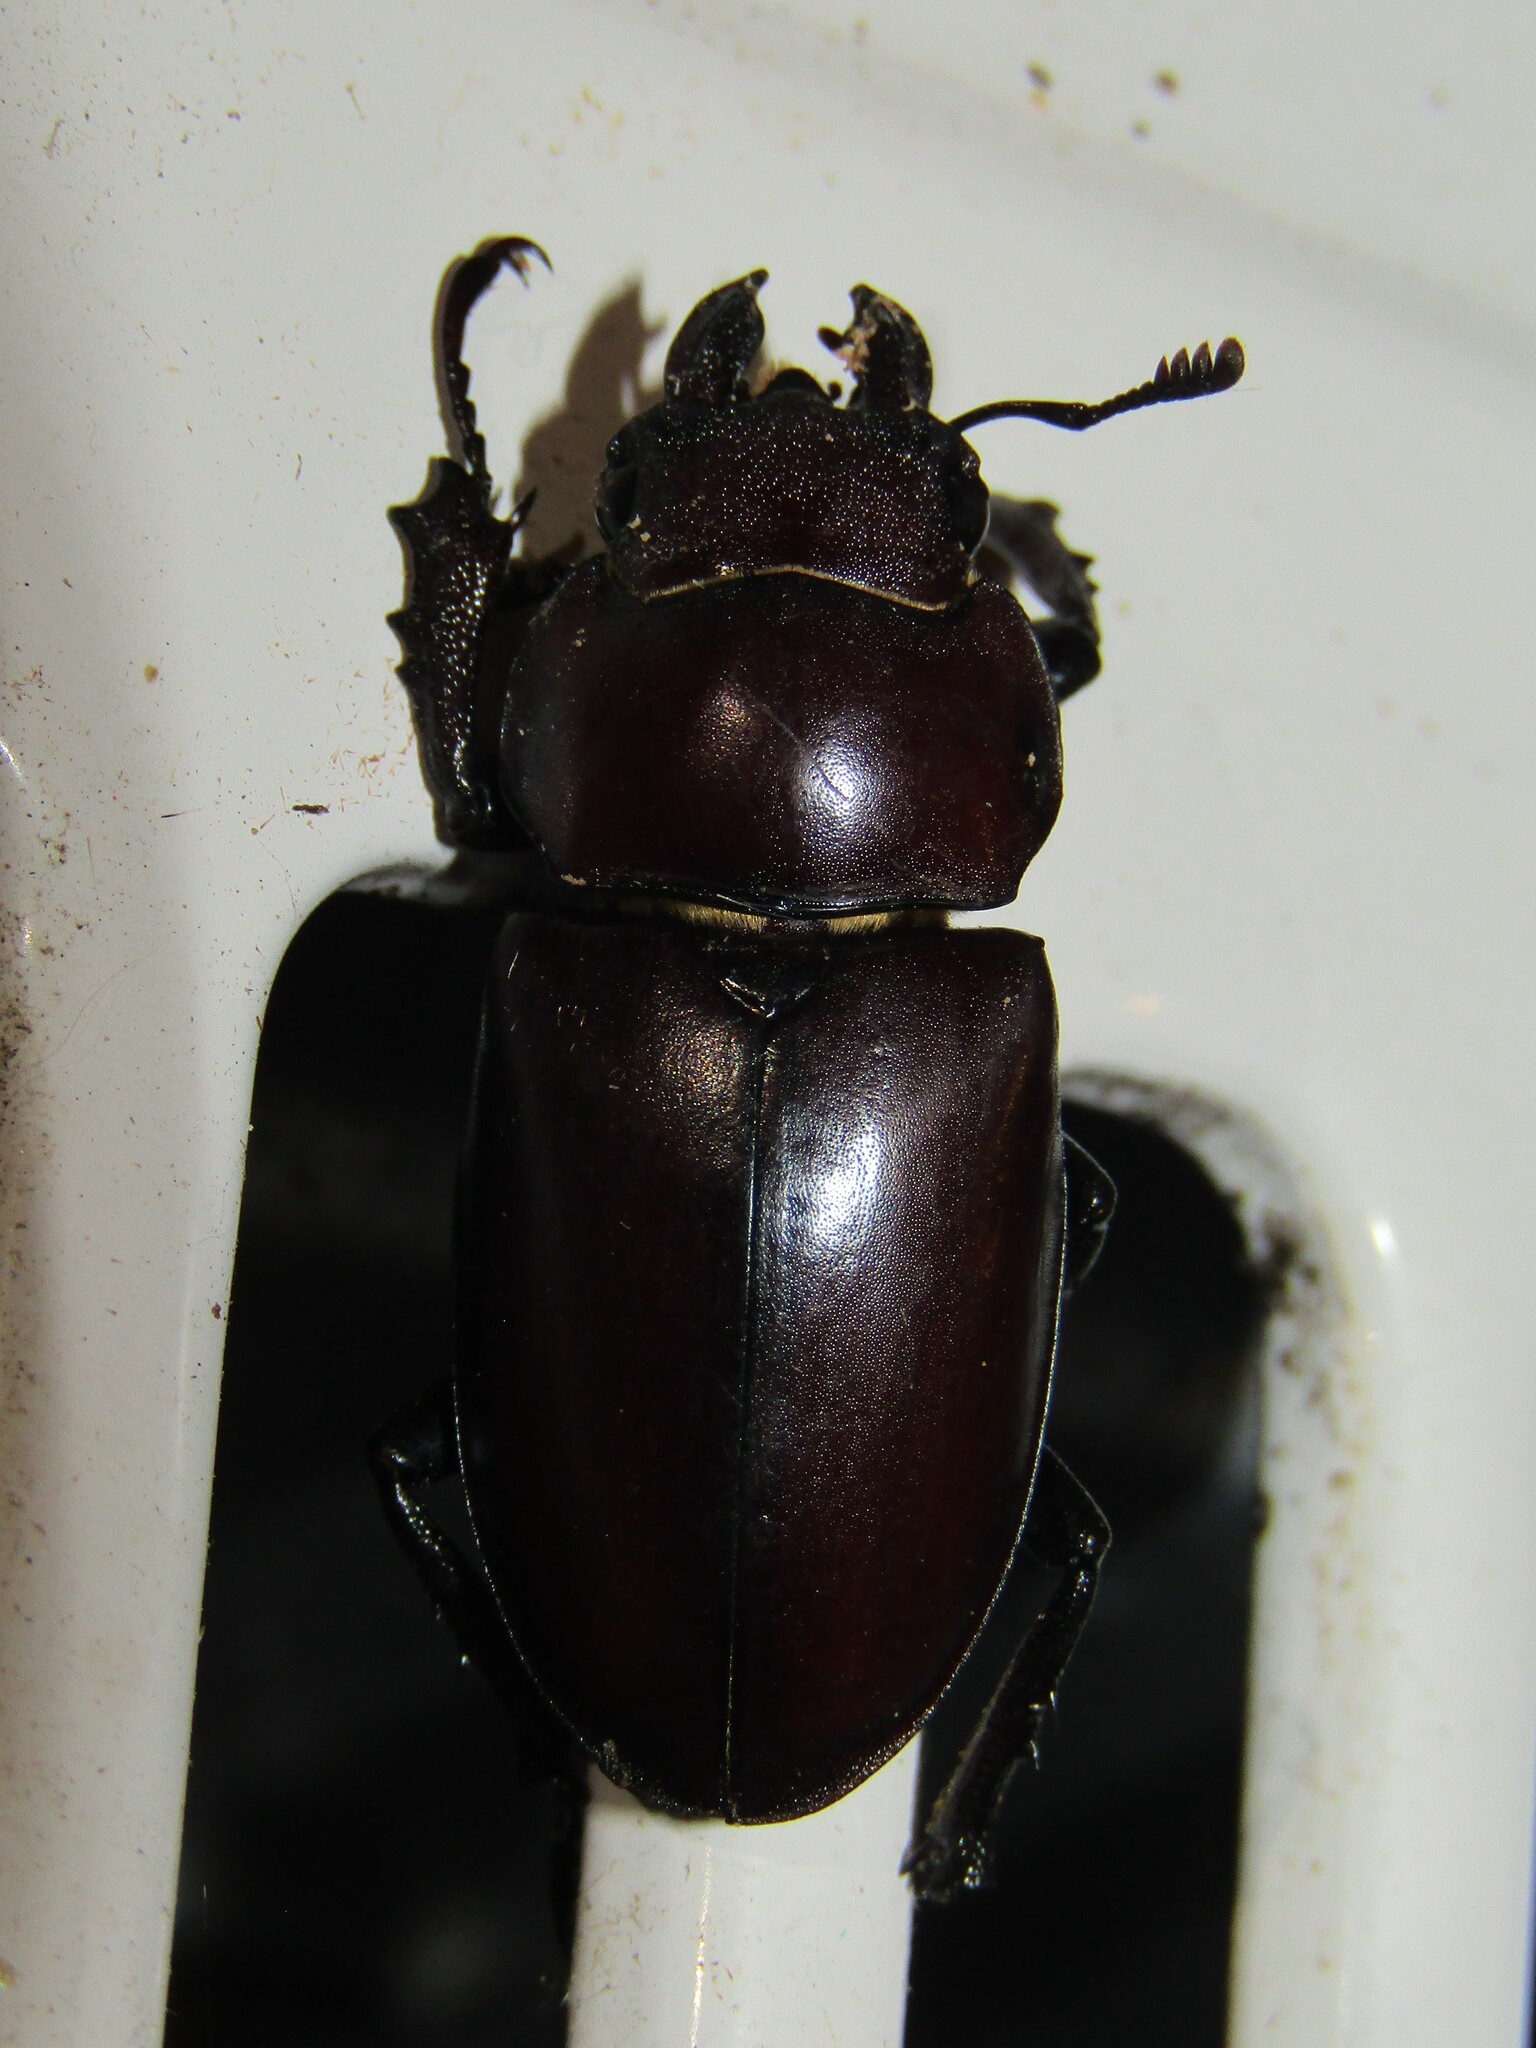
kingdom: Animalia
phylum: Arthropoda
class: Insecta
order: Coleoptera
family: Lucanidae
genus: Lucanus
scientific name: Lucanus elaphus
